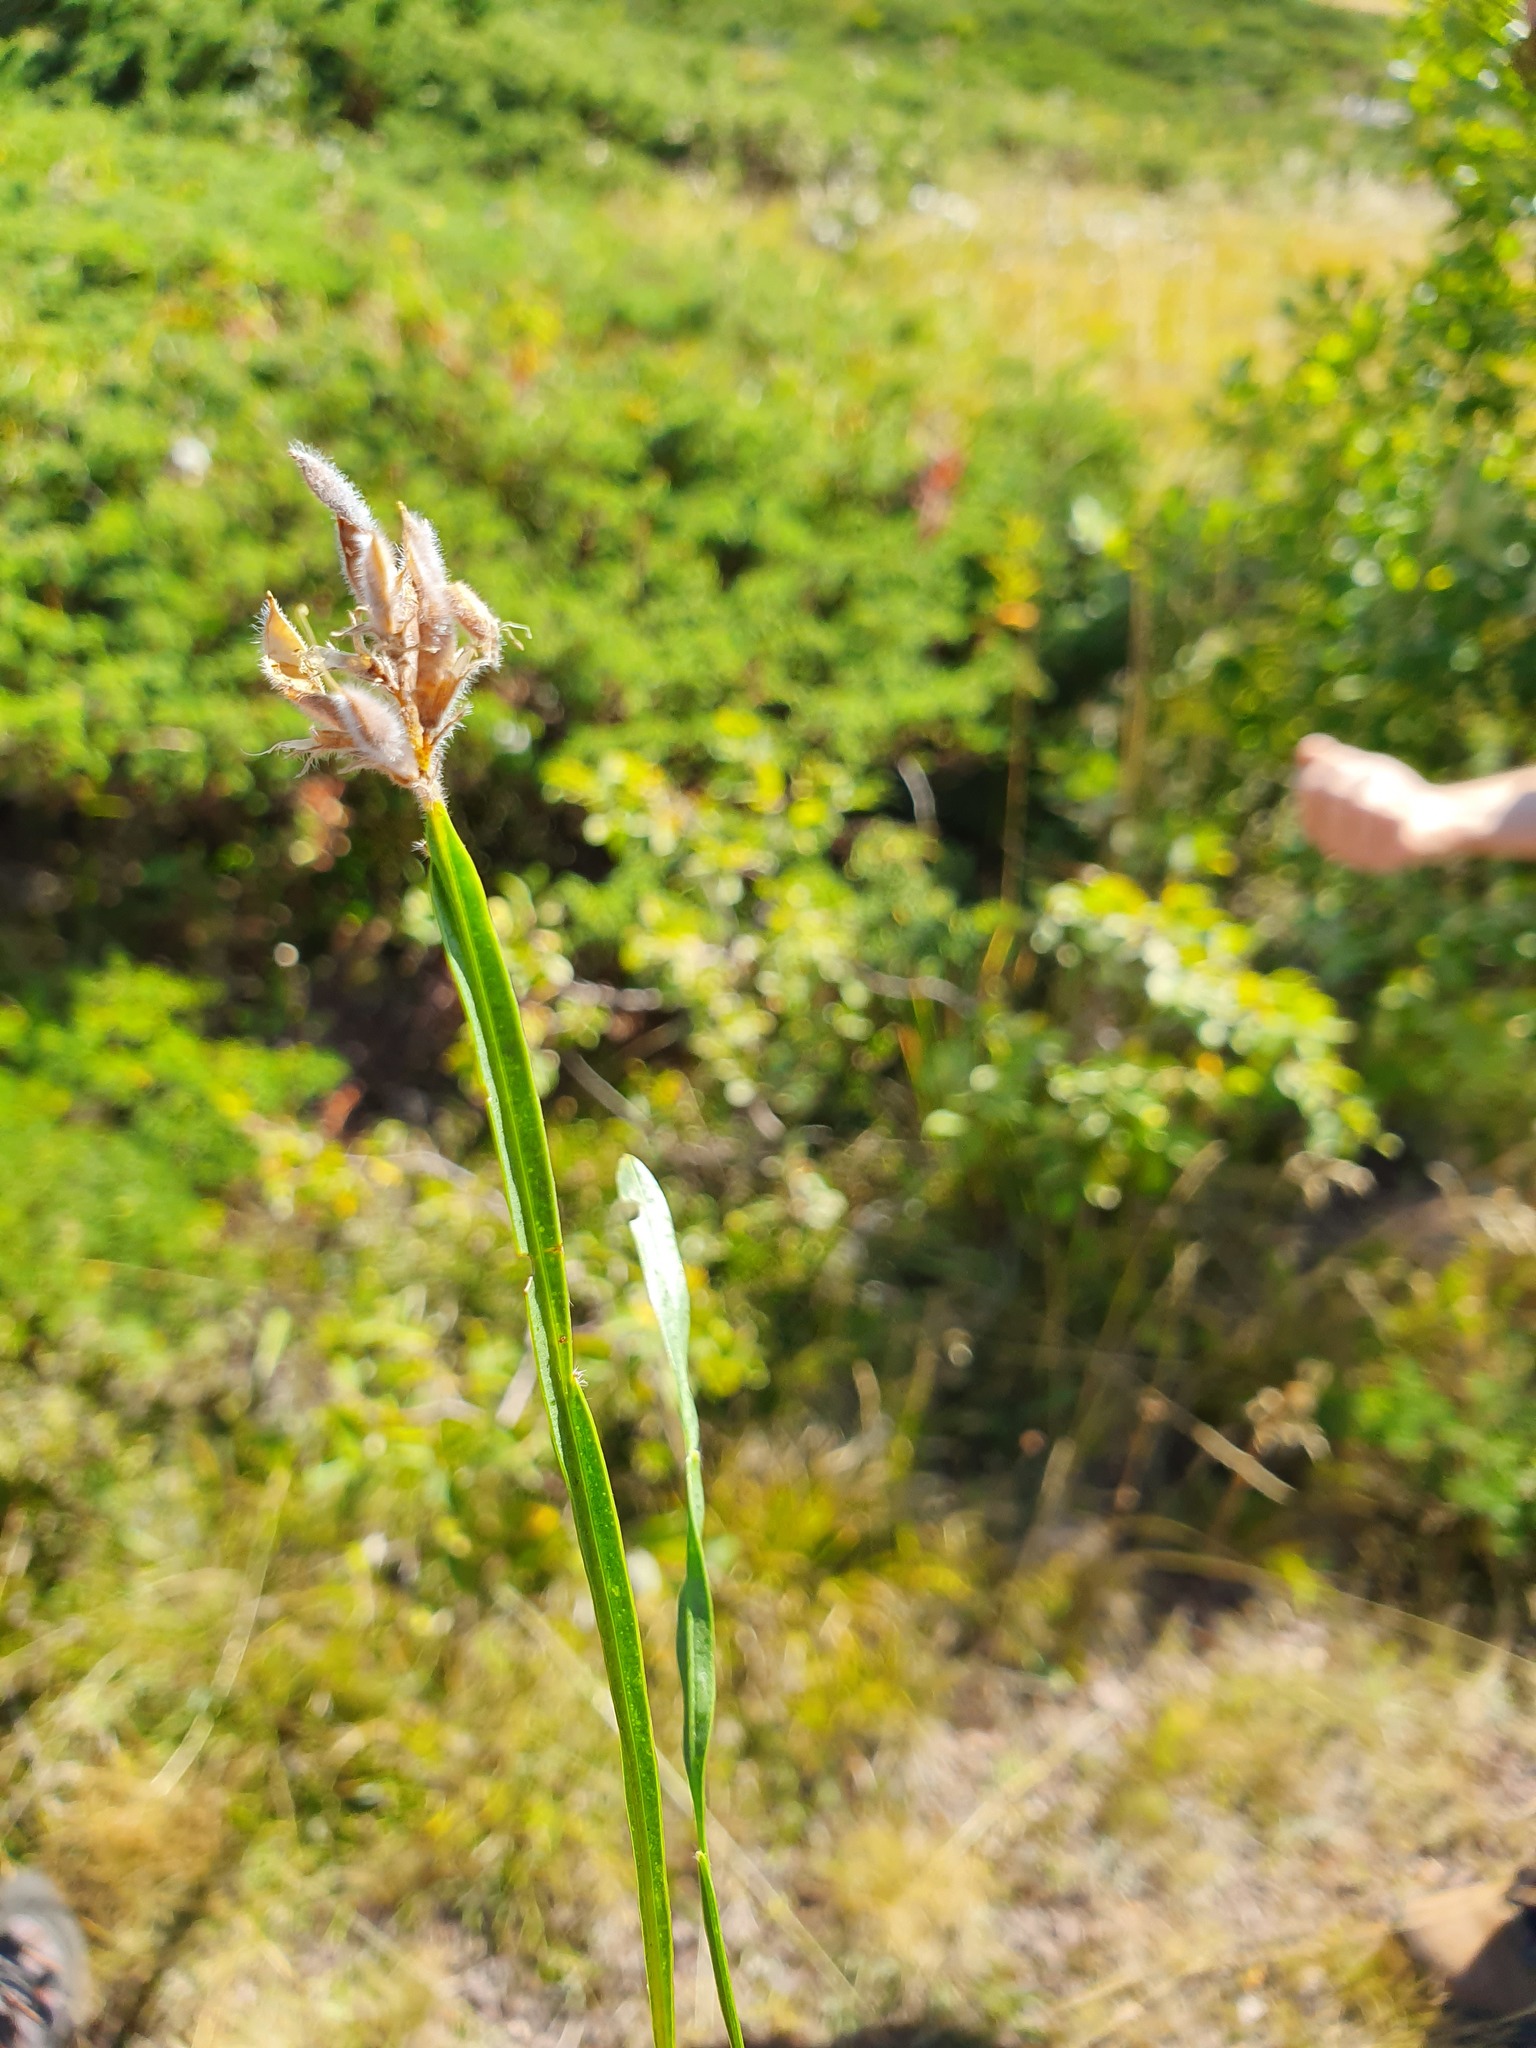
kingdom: Plantae
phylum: Tracheophyta
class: Magnoliopsida
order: Fabales
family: Fabaceae
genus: Genista
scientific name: Genista sagittalis
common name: Winged greenweed
